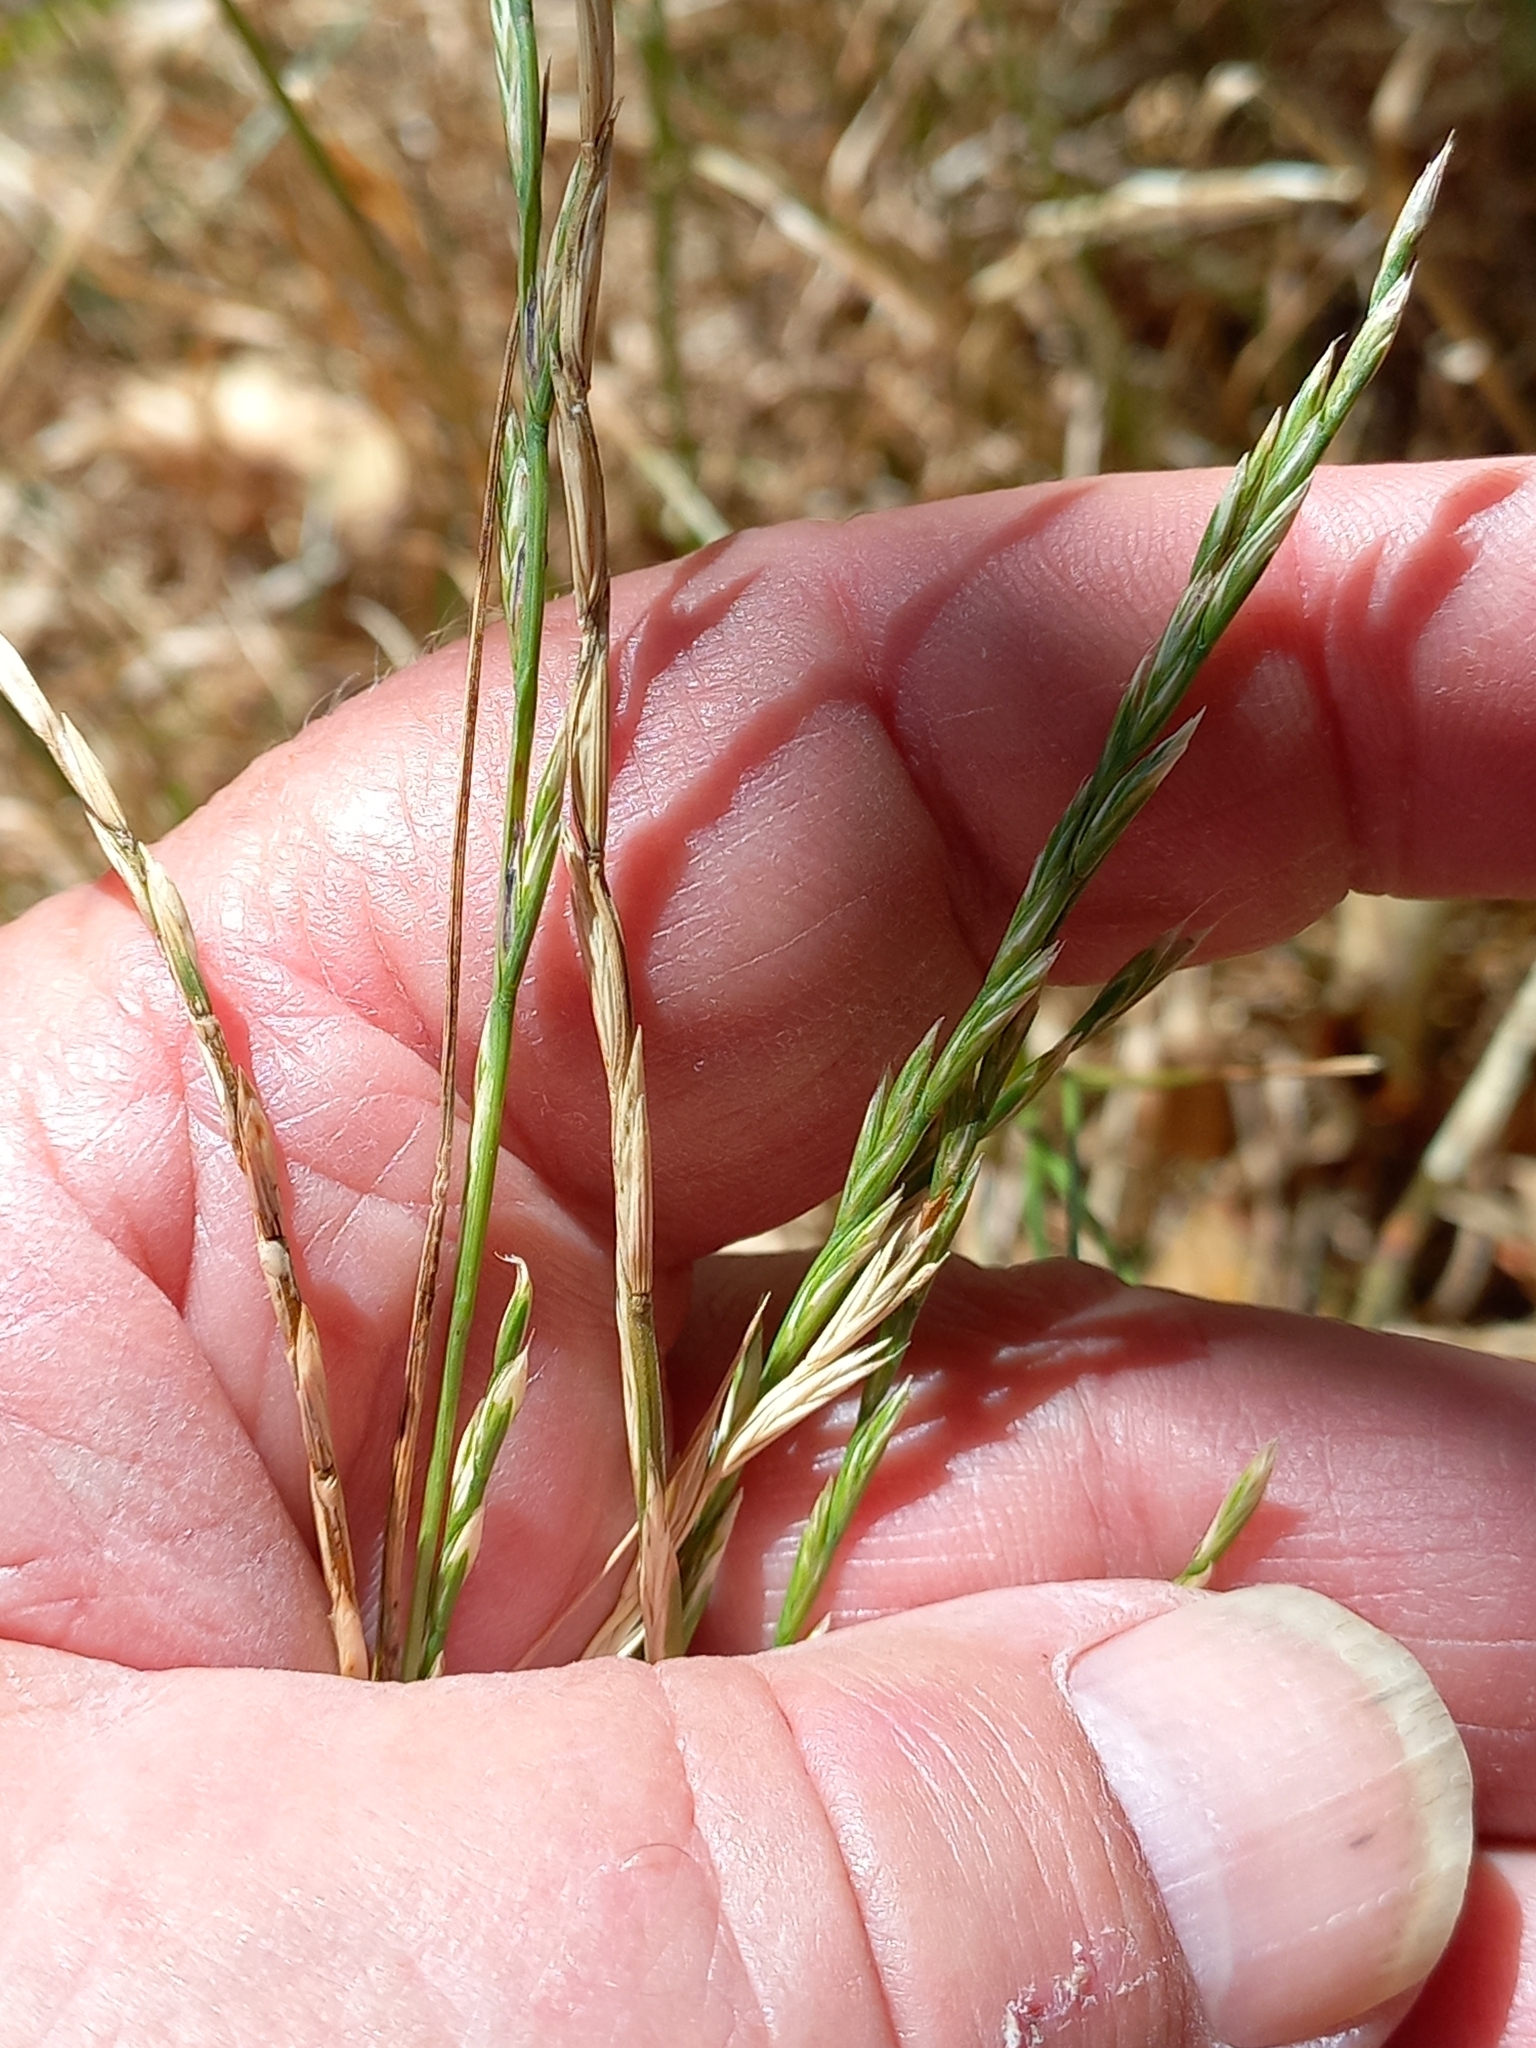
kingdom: Plantae
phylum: Tracheophyta
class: Liliopsida
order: Poales
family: Poaceae
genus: Lolium
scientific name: Lolium perenne
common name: Perennial ryegrass
